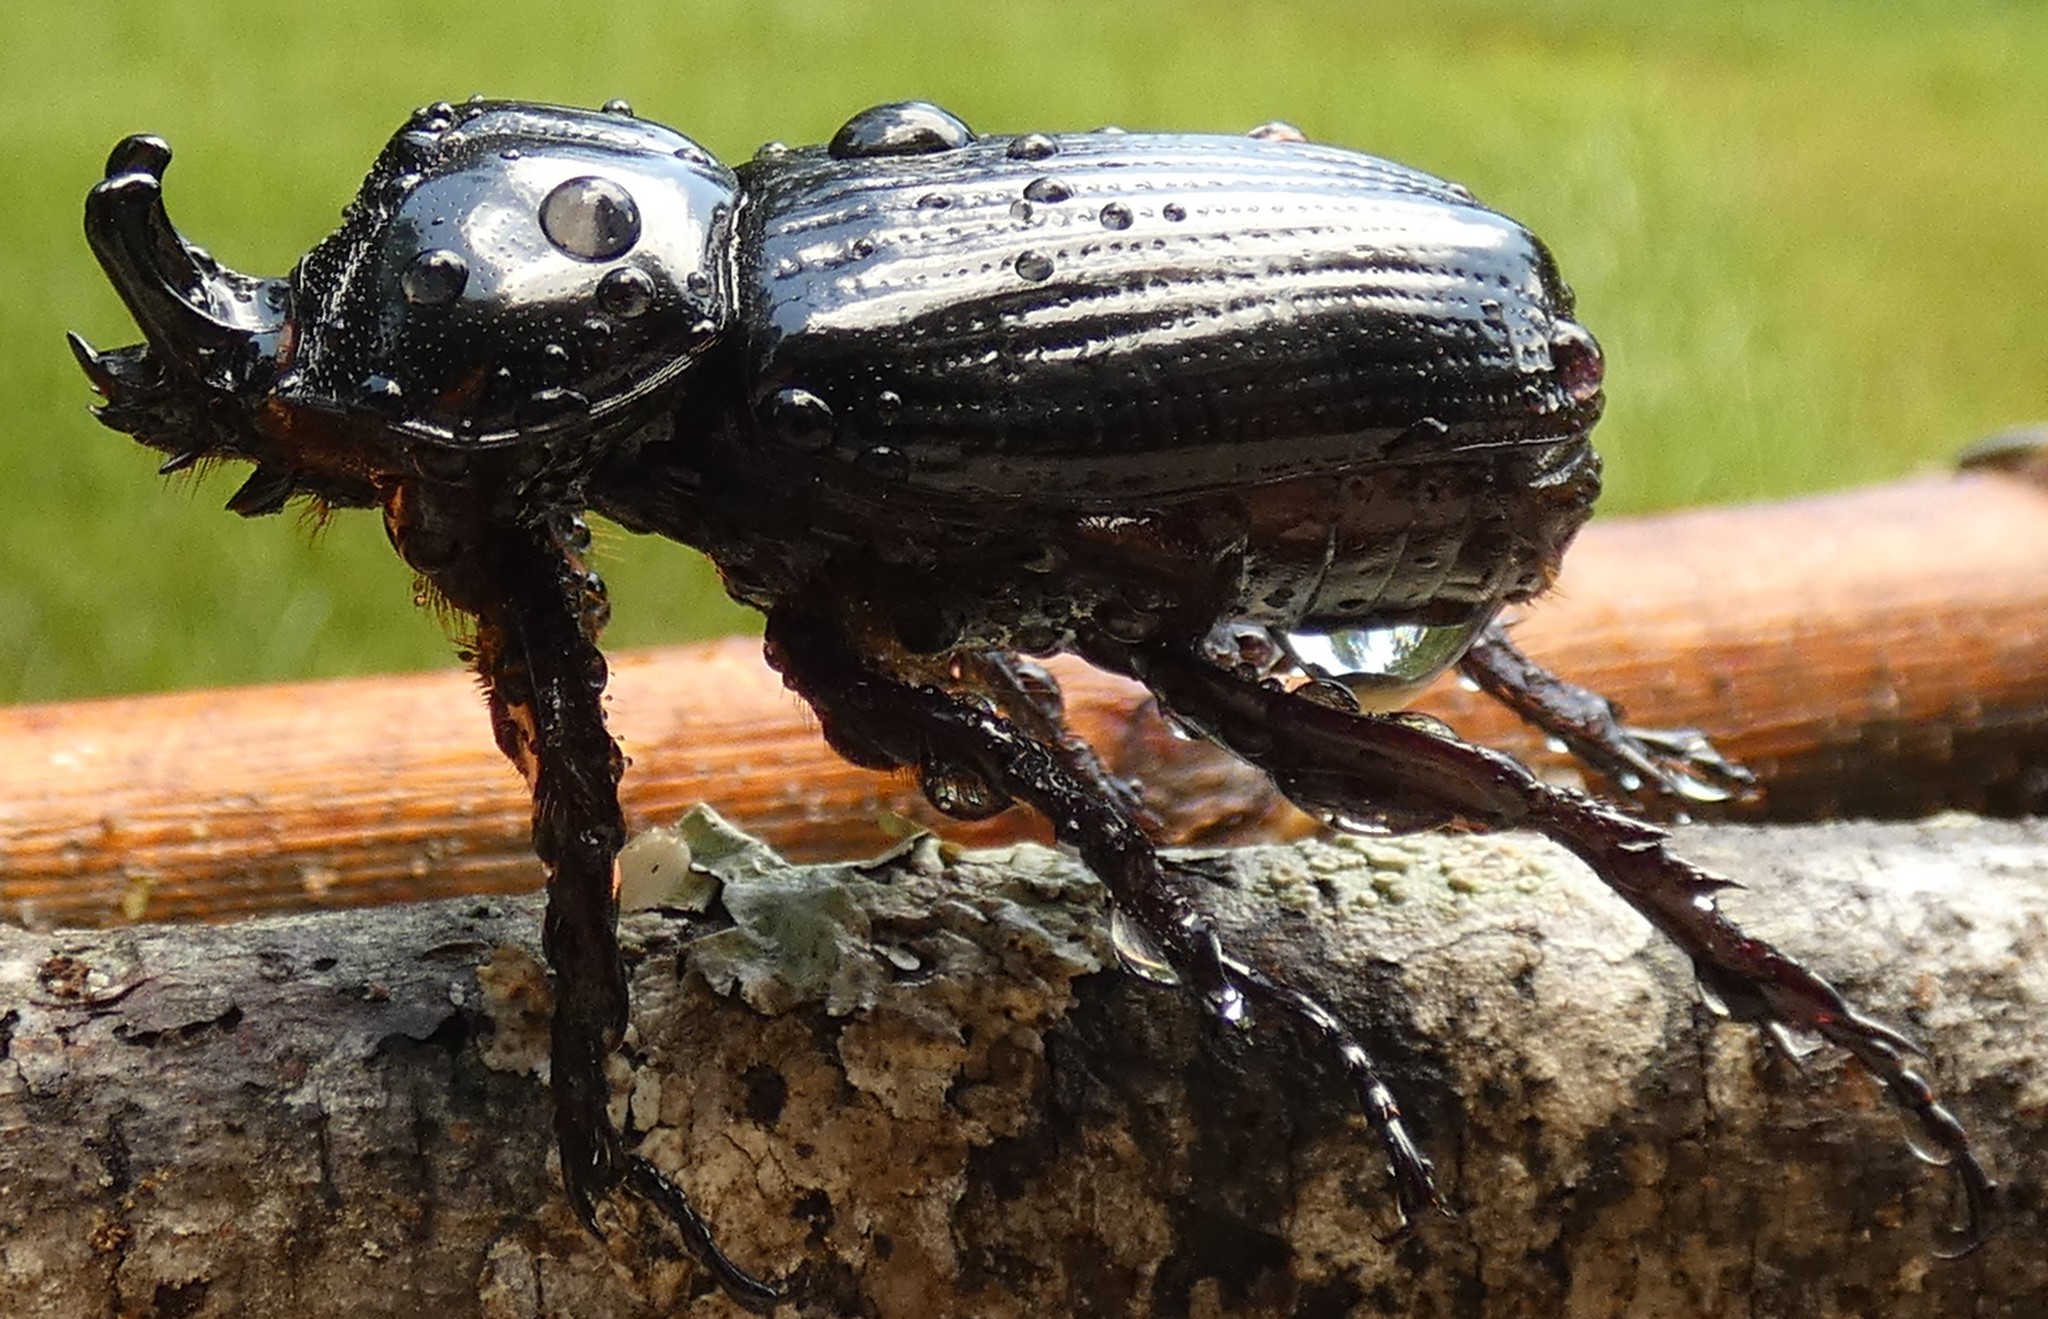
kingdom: Animalia
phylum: Arthropoda
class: Insecta
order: Coleoptera
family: Scarabaeidae
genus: Phileurus
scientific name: Phileurus truncatus
